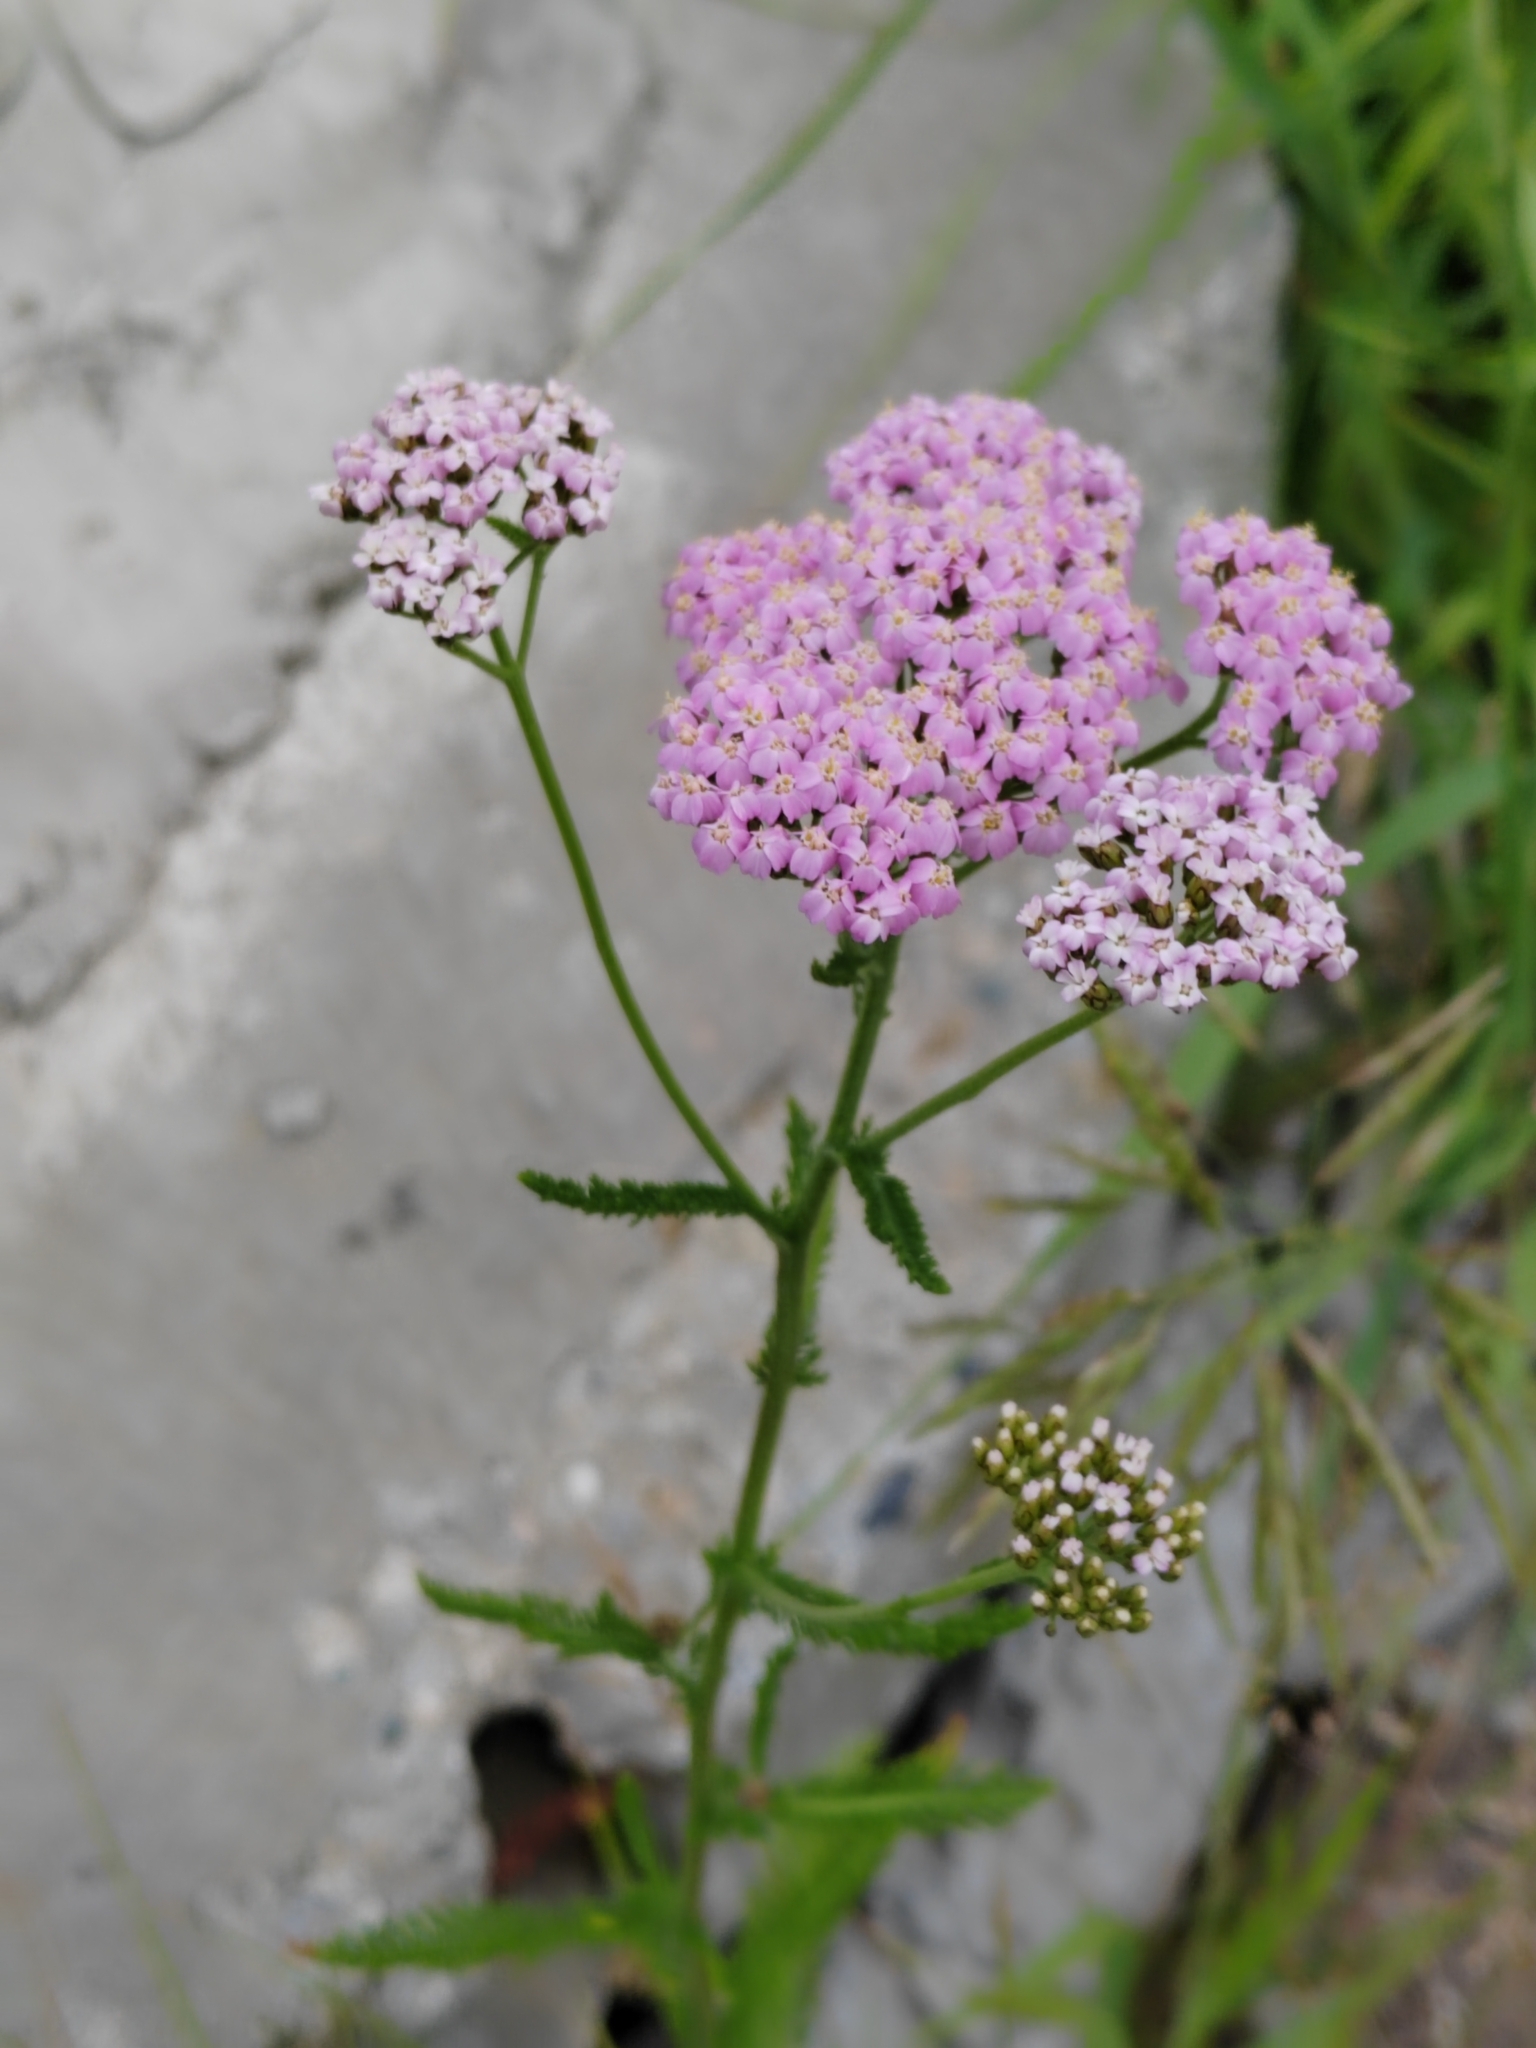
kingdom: Plantae
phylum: Tracheophyta
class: Magnoliopsida
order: Asterales
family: Asteraceae
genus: Achillea
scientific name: Achillea asiatica
